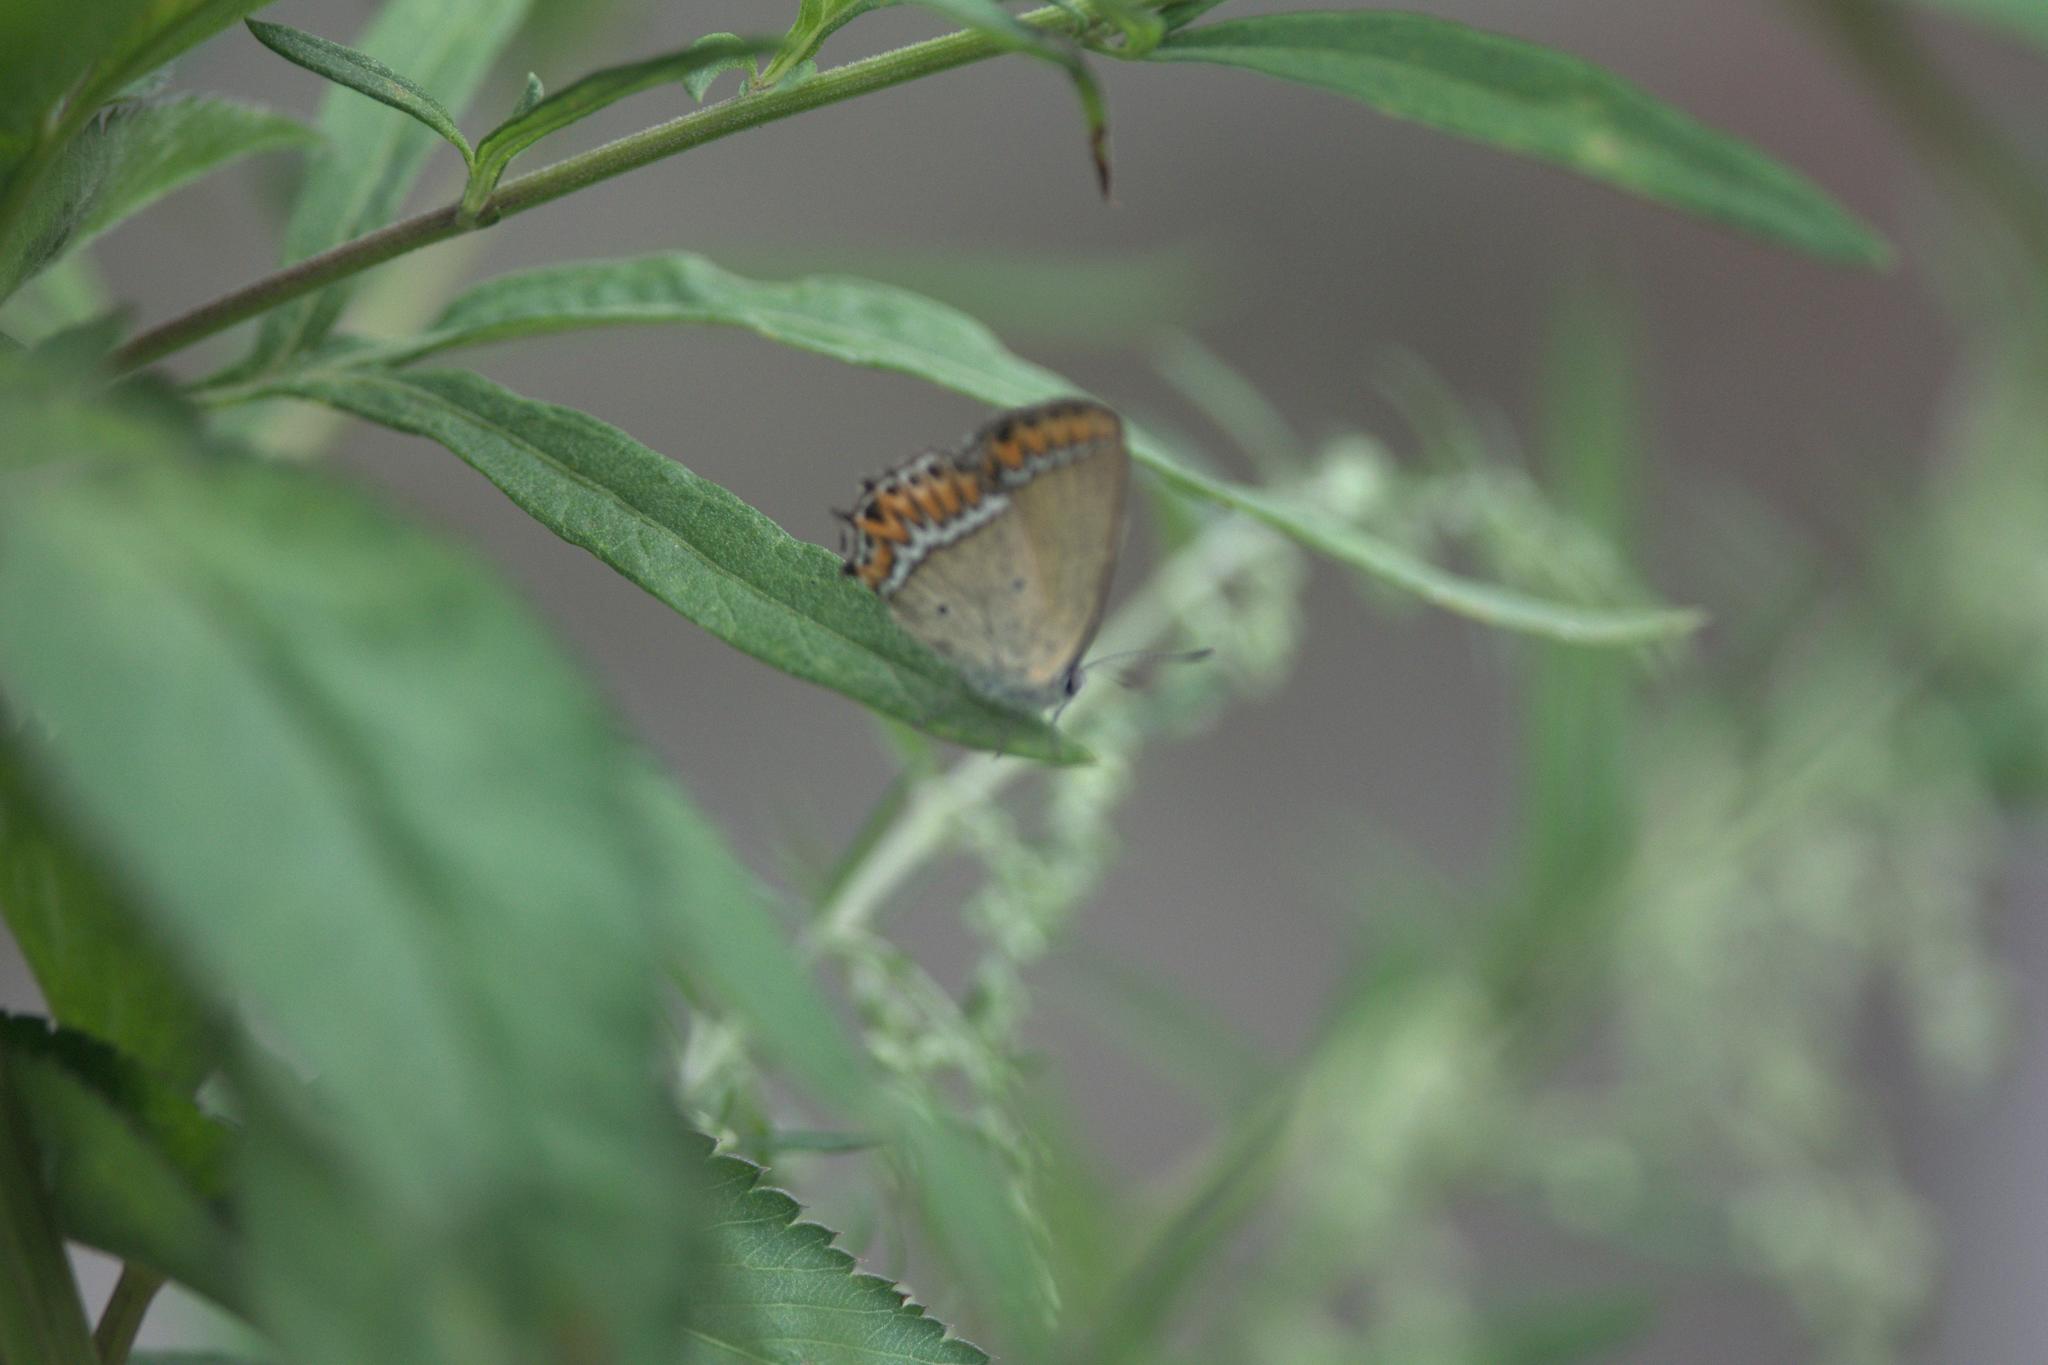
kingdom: Animalia
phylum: Arthropoda
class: Insecta
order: Lepidoptera
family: Lycaenidae
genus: Heliophorus
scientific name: Heliophorus sena
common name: Sorrel sapphire
